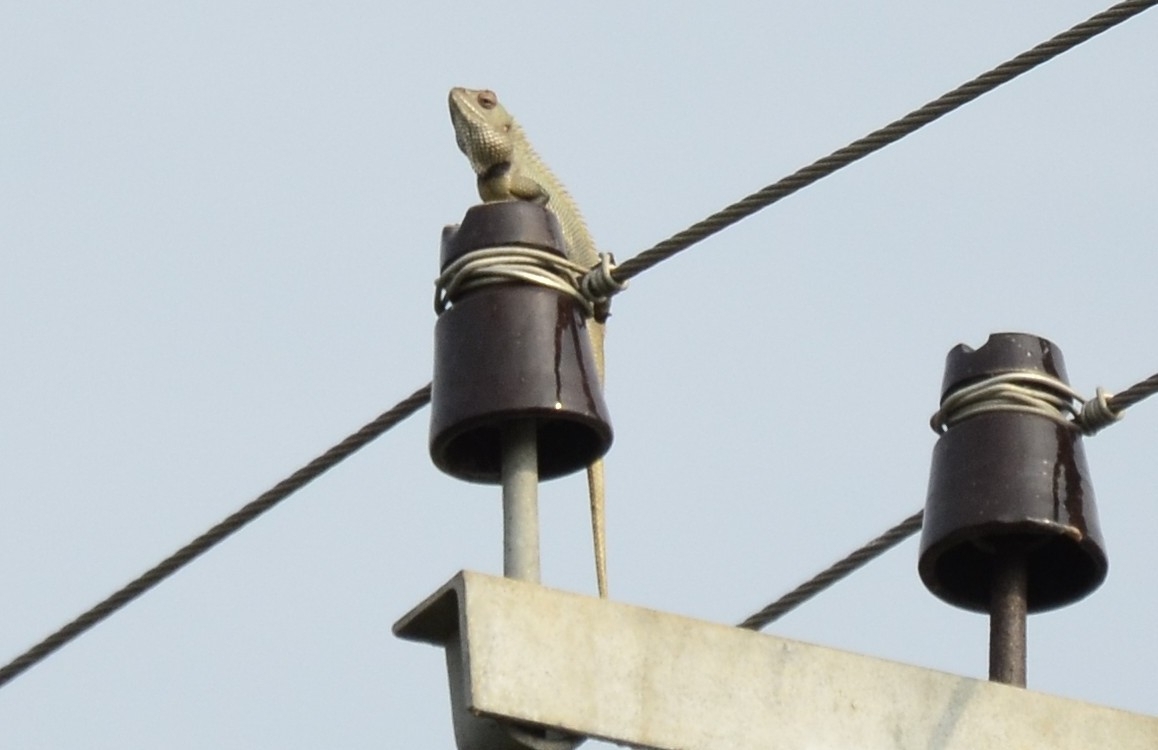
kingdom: Animalia
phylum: Chordata
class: Squamata
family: Agamidae
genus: Calotes
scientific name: Calotes versicolor
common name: Oriental garden lizard
